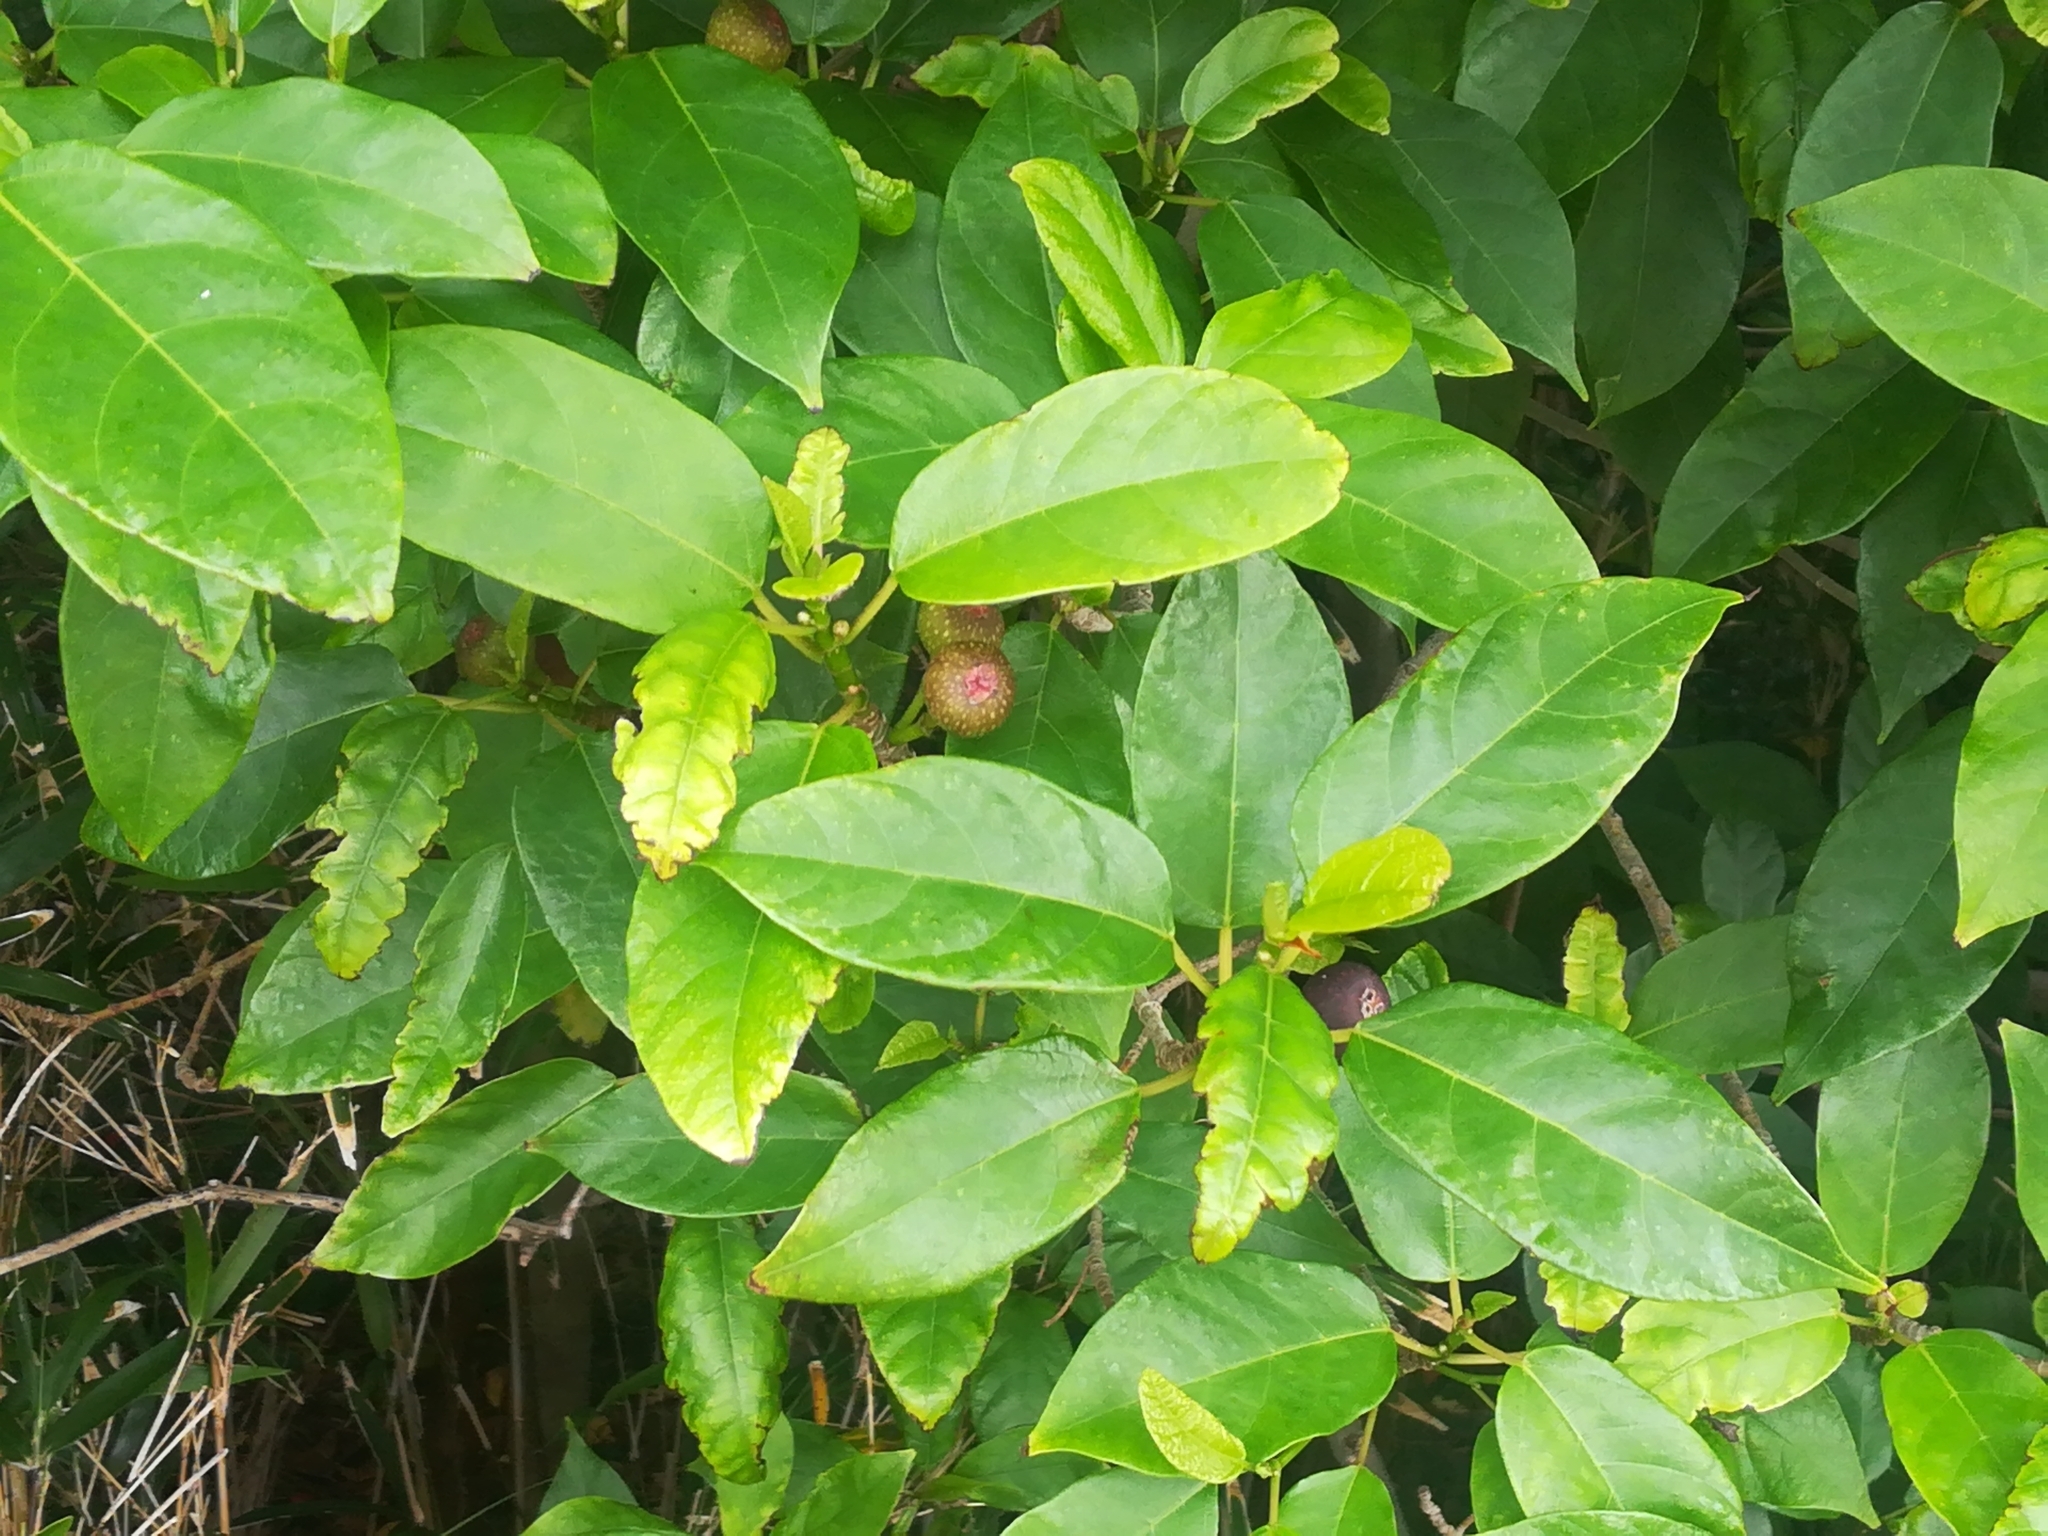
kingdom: Plantae
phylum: Tracheophyta
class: Magnoliopsida
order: Rosales
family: Moraceae
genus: Ficus
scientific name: Ficus erecta
